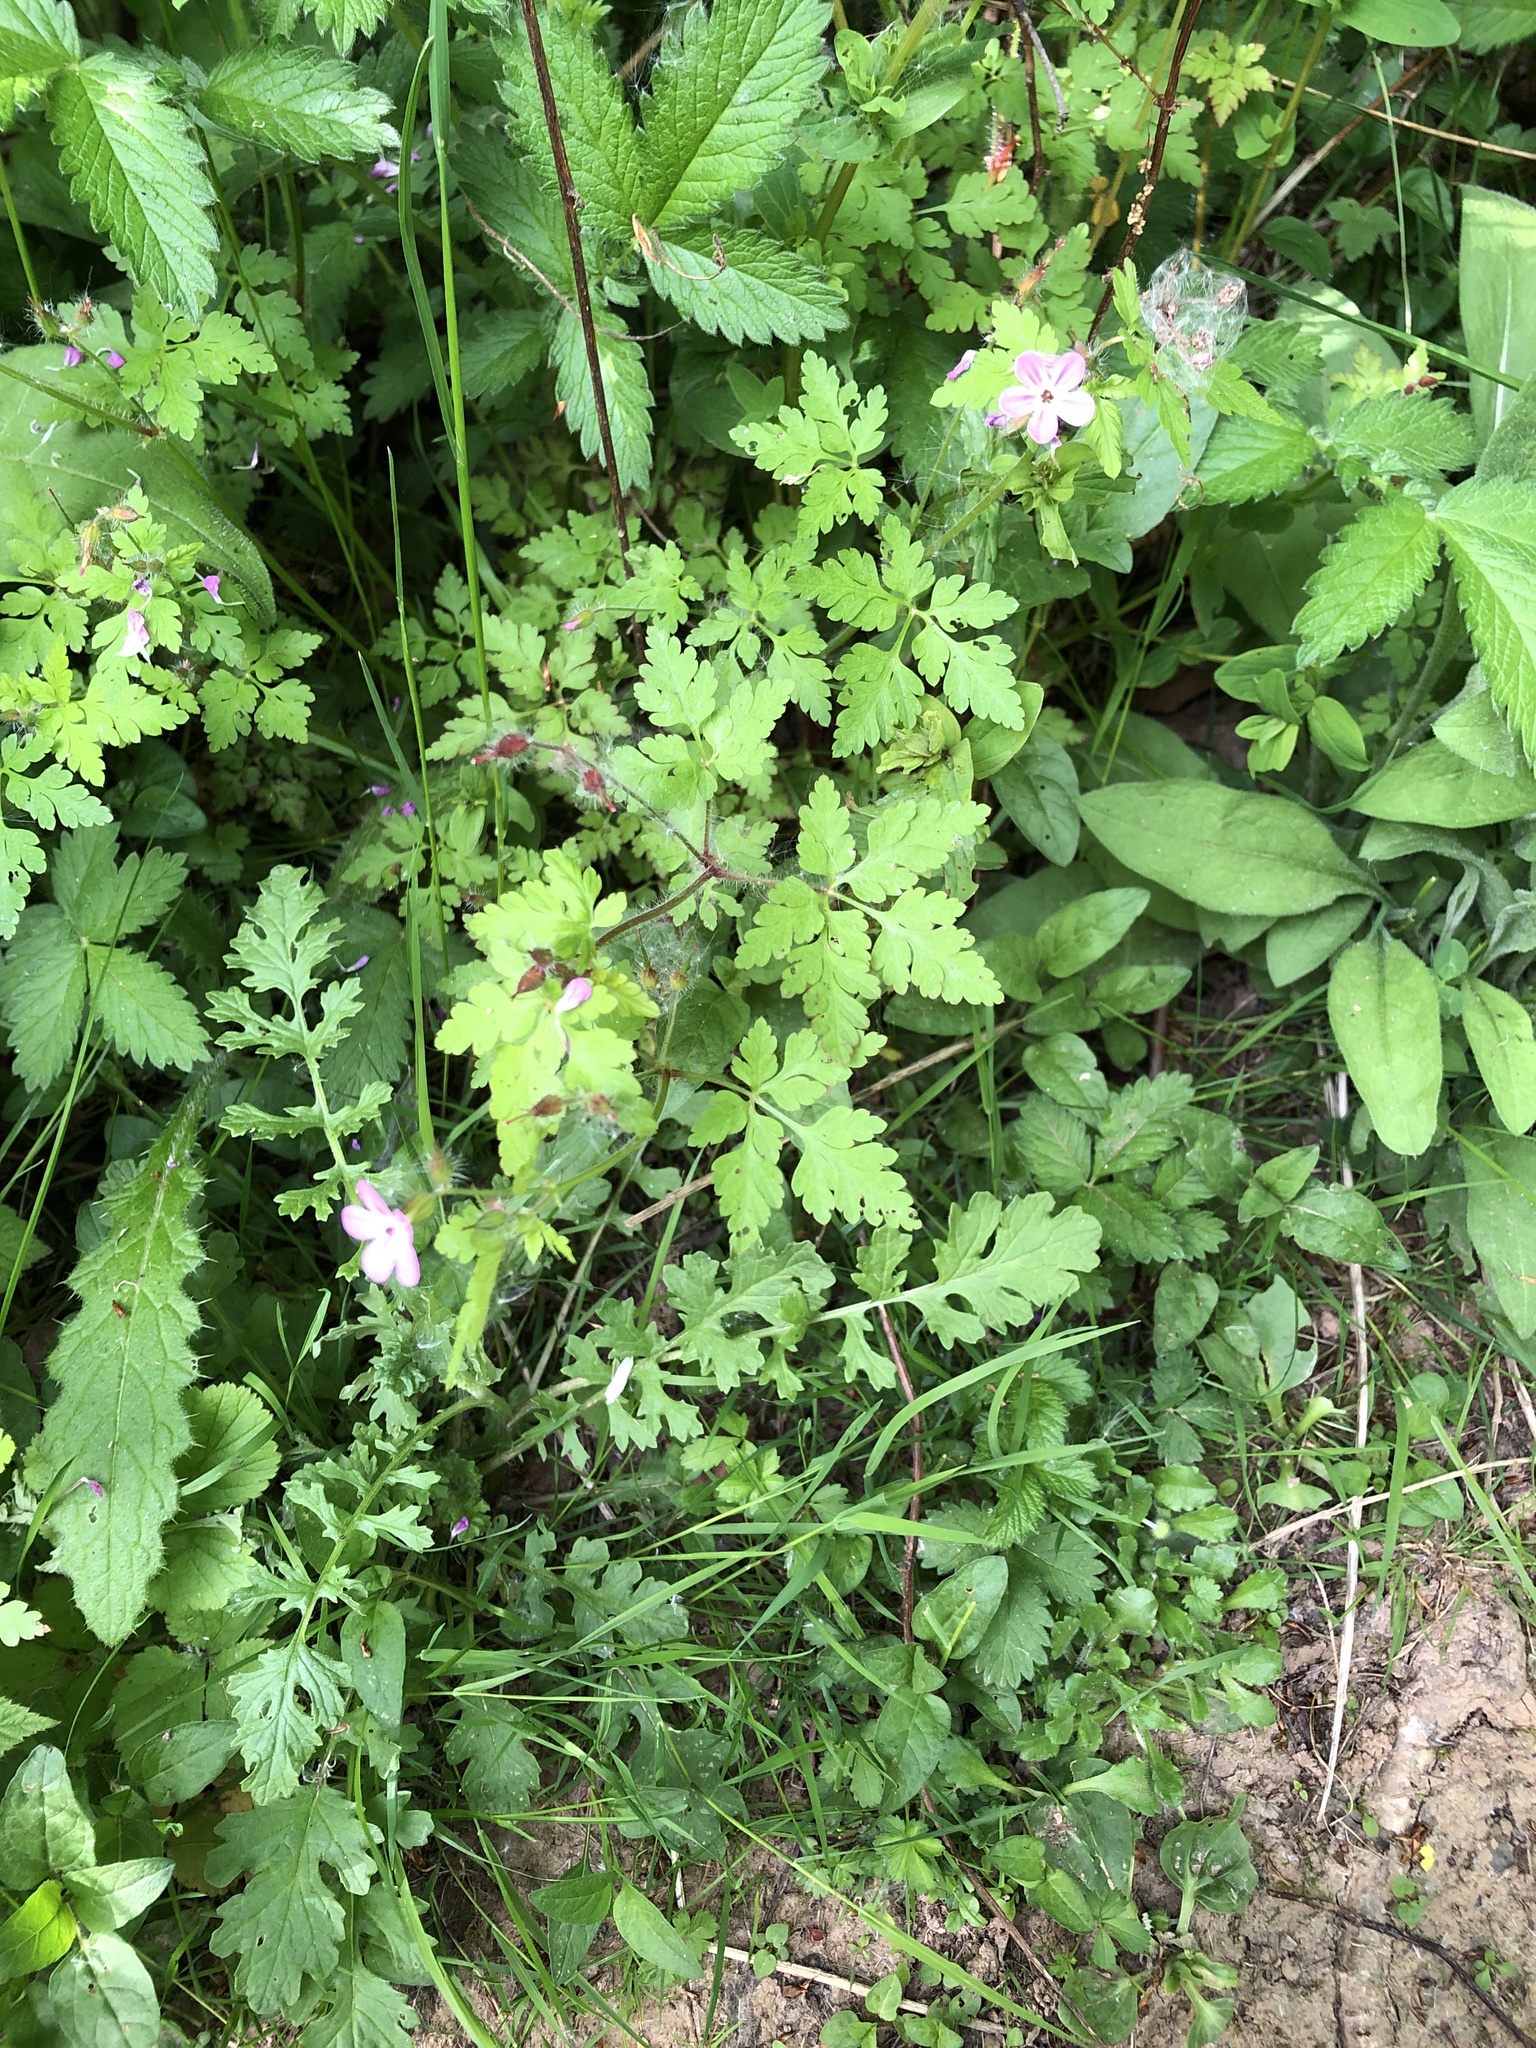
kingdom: Plantae
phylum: Tracheophyta
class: Magnoliopsida
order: Geraniales
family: Geraniaceae
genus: Geranium
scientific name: Geranium robertianum
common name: Herb-robert
